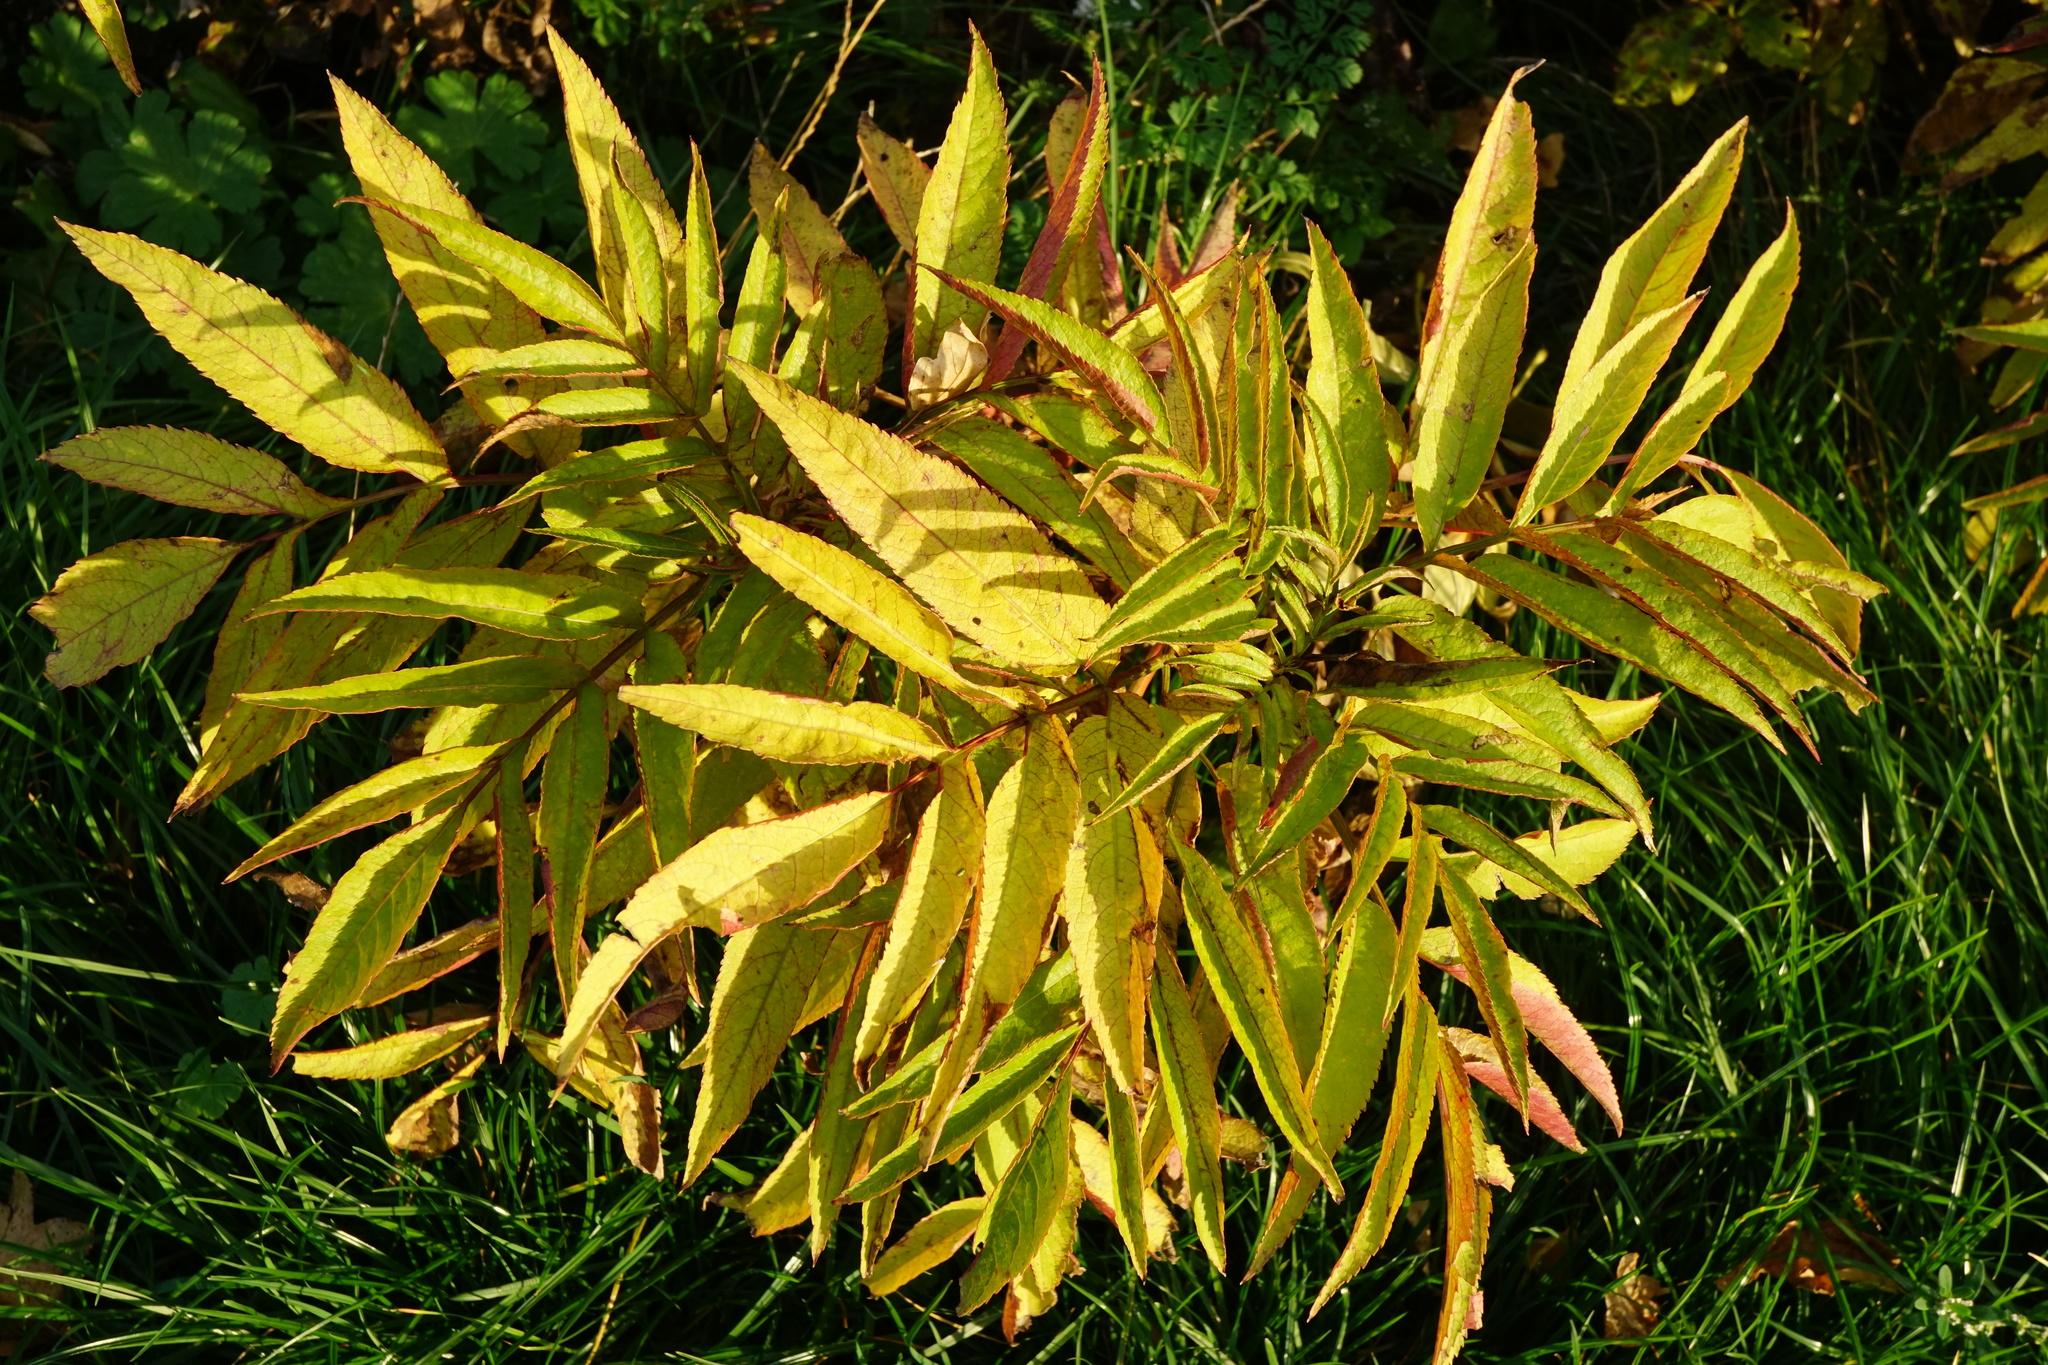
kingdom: Plantae
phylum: Tracheophyta
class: Magnoliopsida
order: Dipsacales
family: Viburnaceae
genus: Sambucus
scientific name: Sambucus ebulus
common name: Dwarf elder
